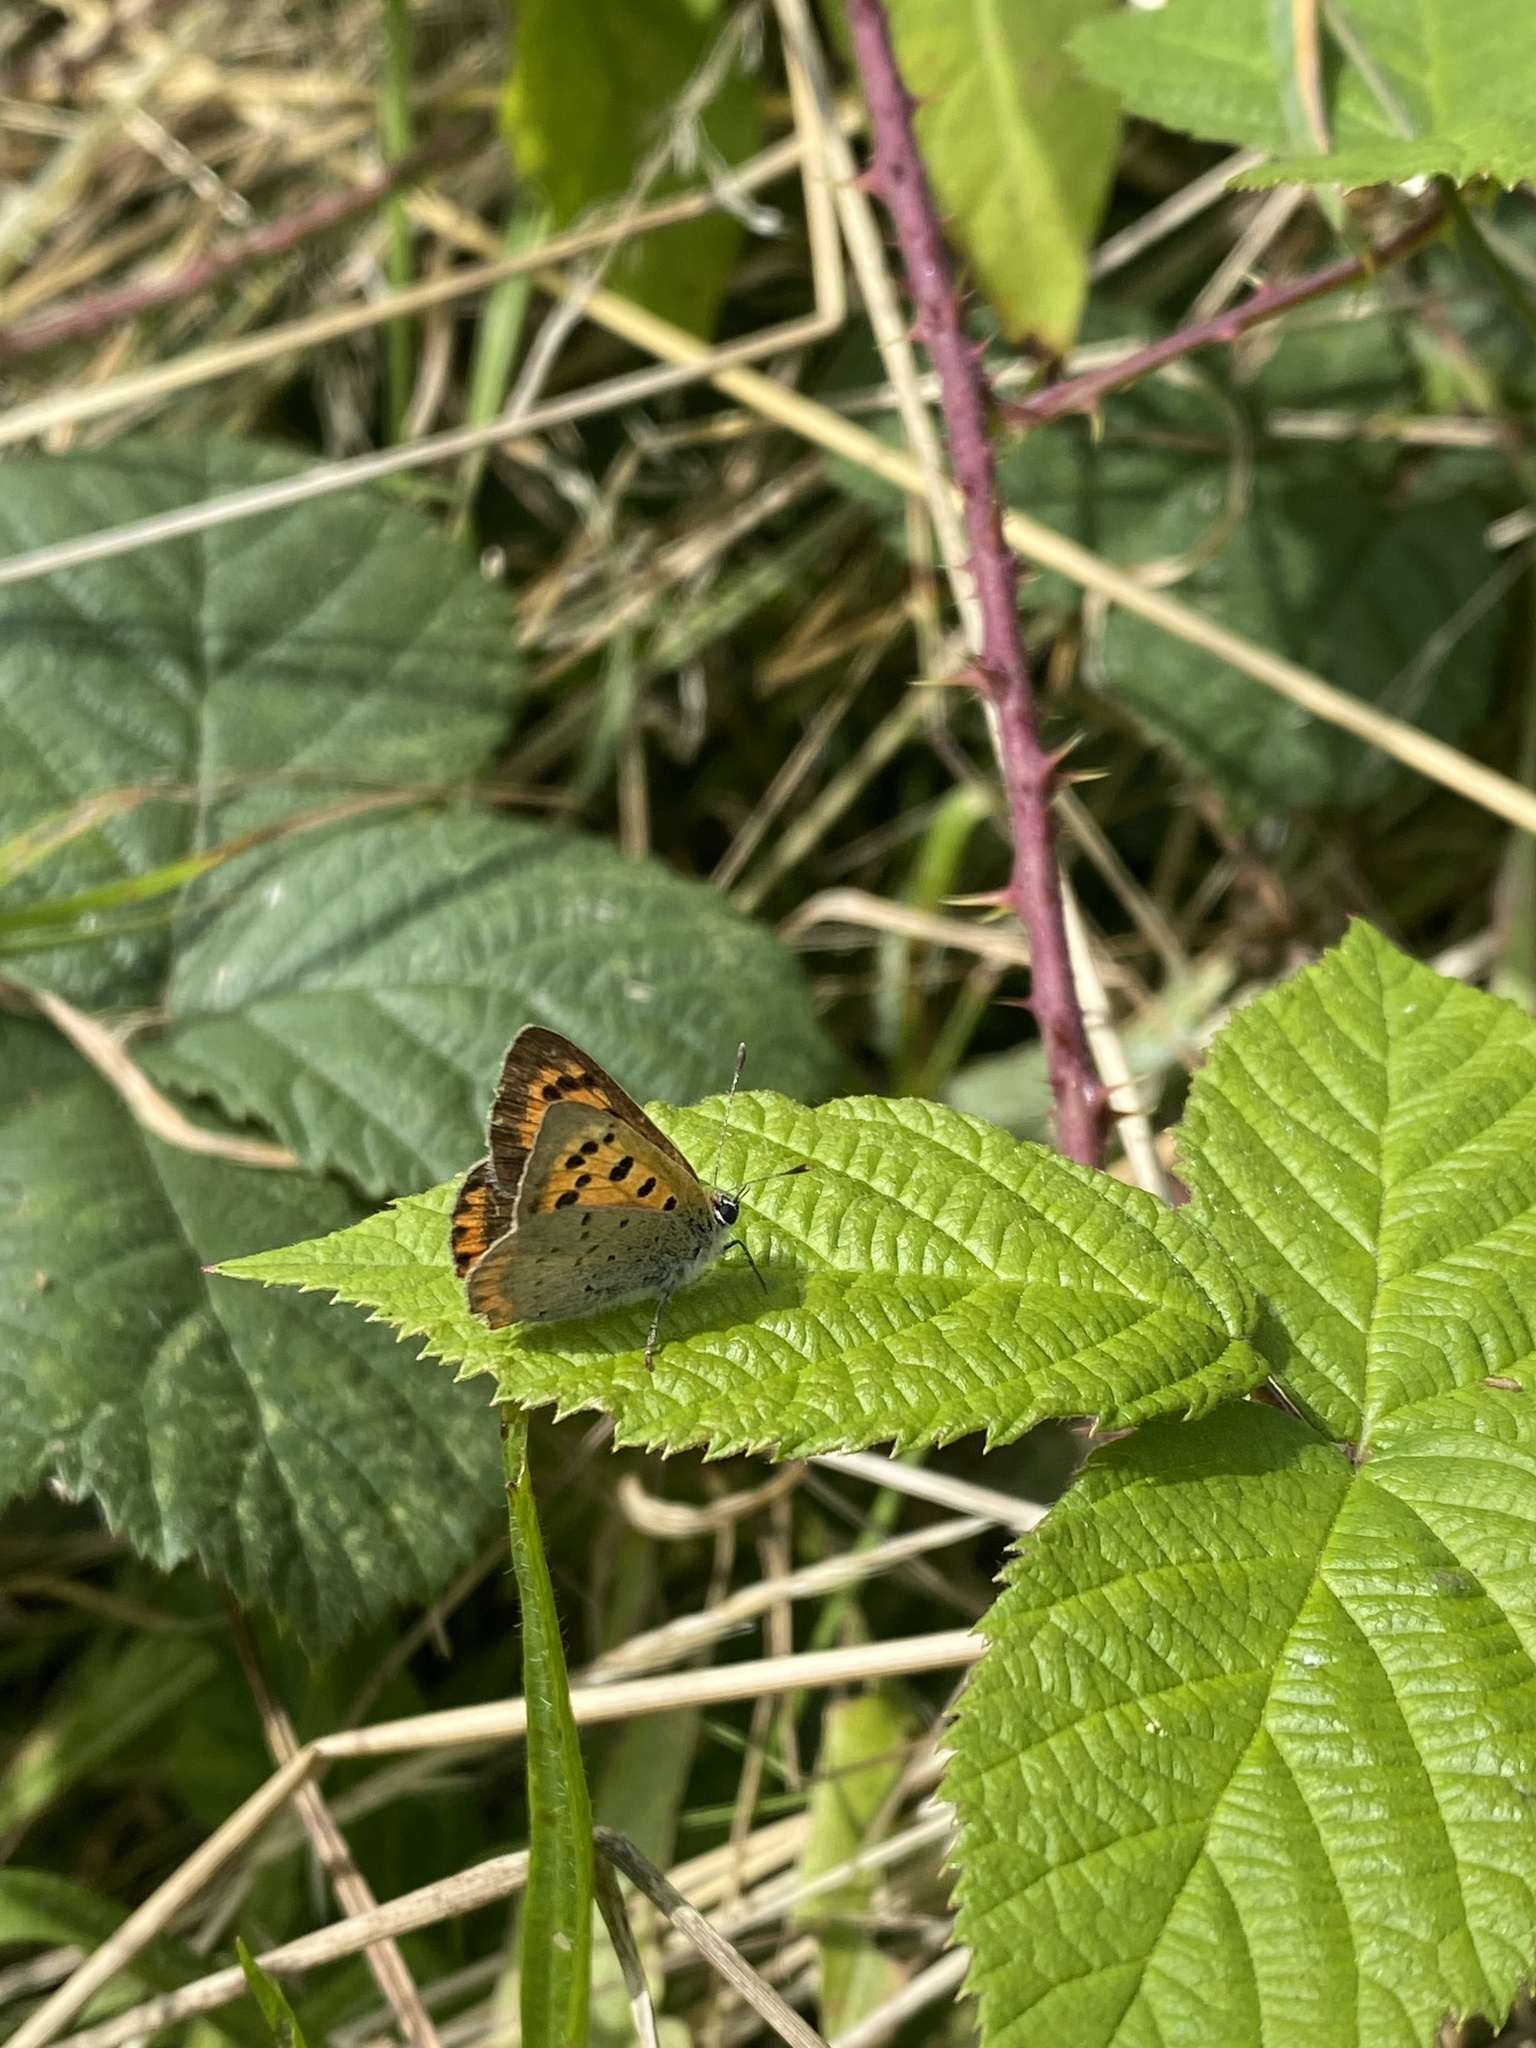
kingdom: Animalia
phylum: Arthropoda
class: Insecta
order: Lepidoptera
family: Lycaenidae
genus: Lycaena
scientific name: Lycaena phlaeas
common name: Small copper
